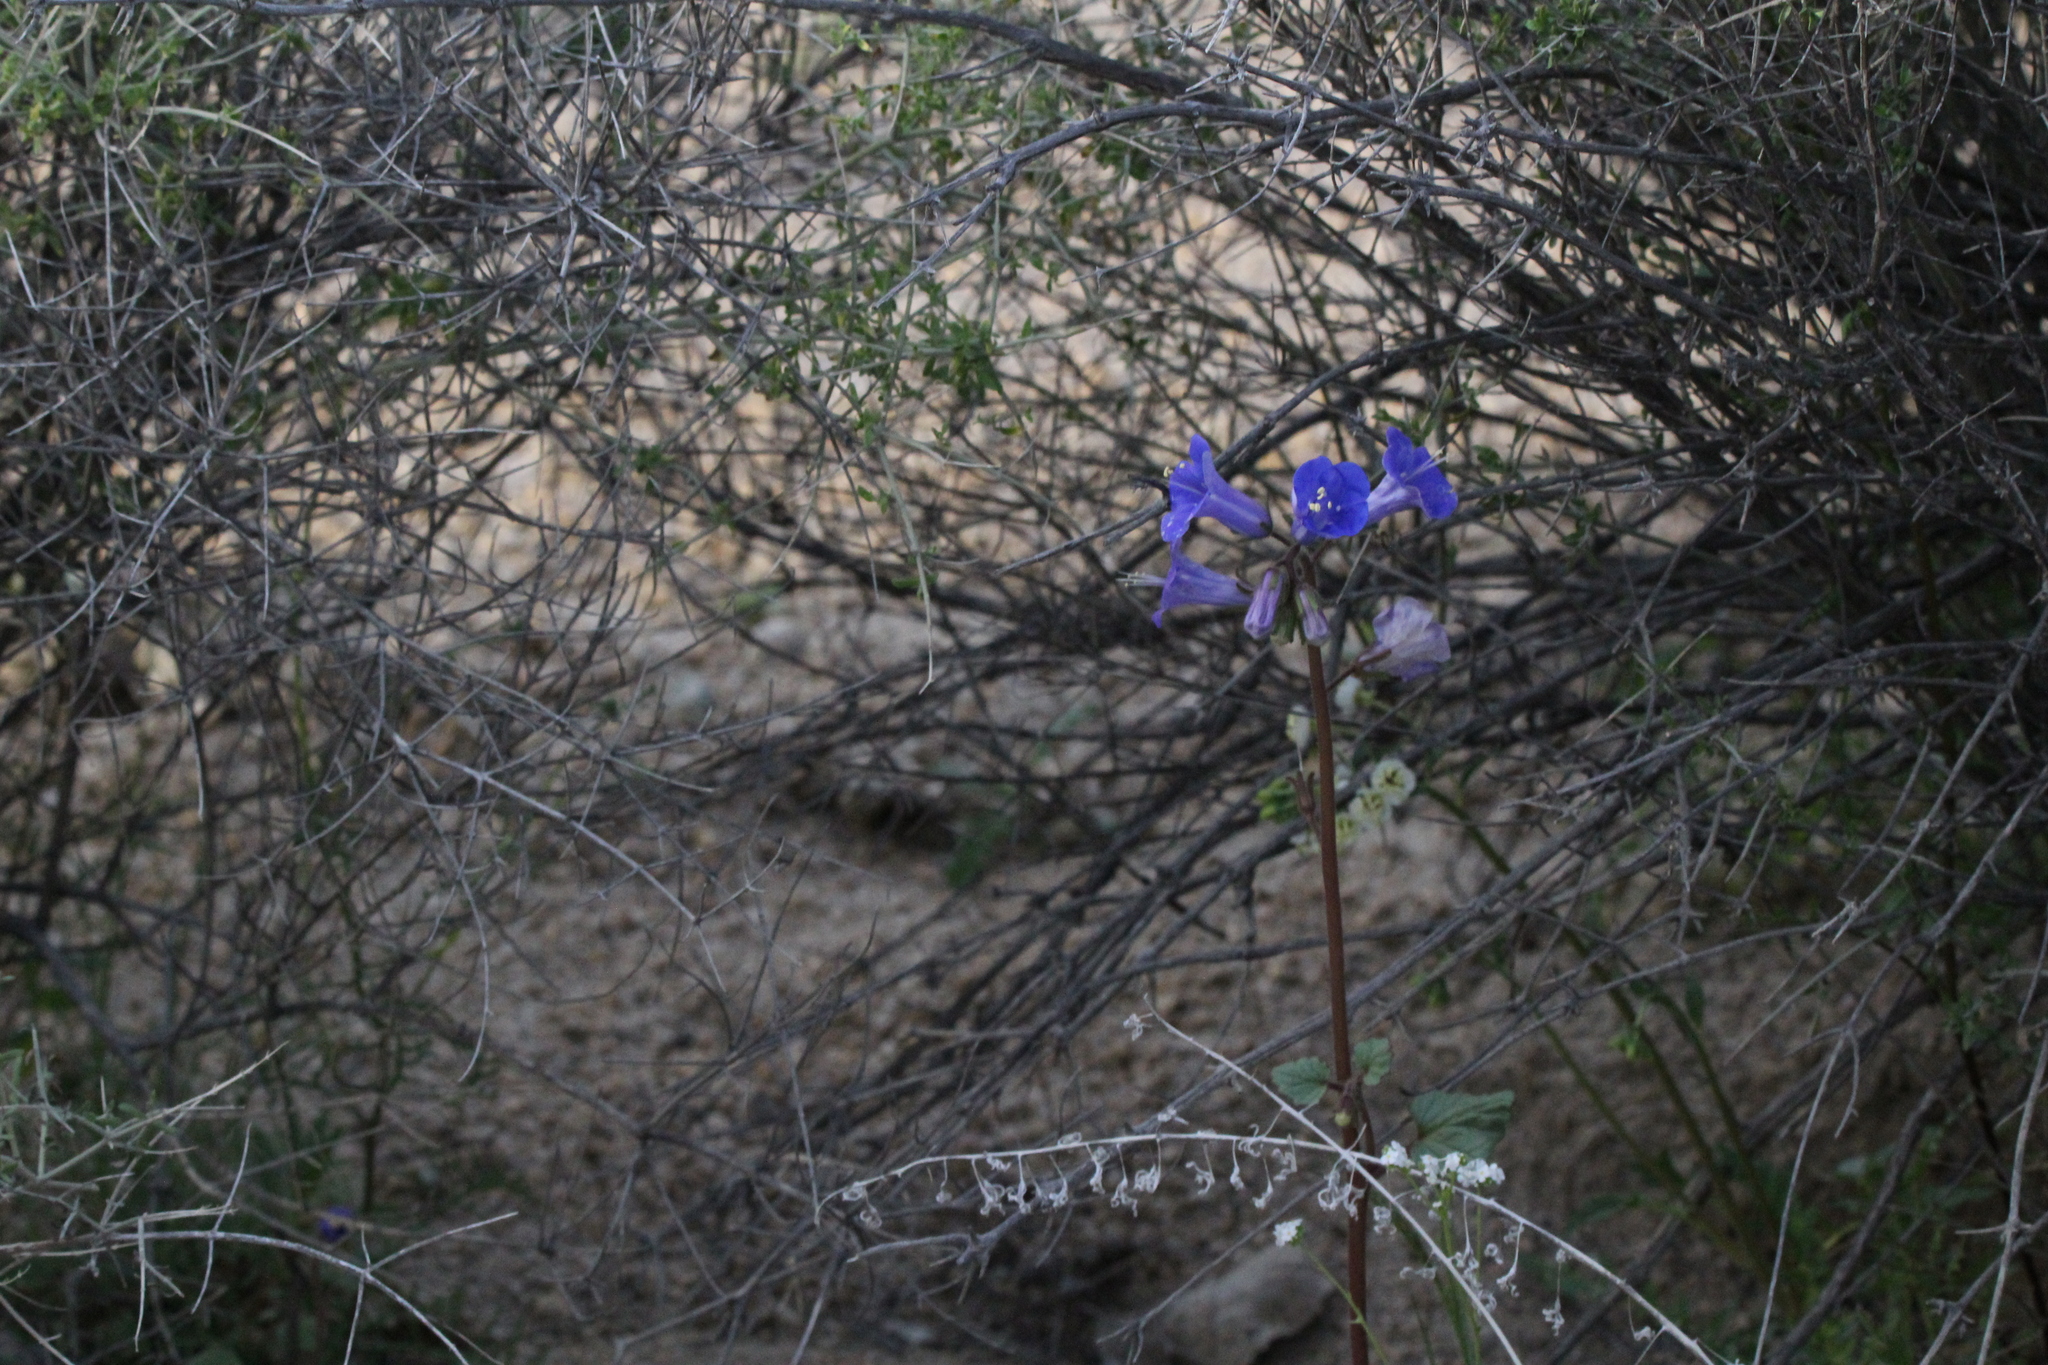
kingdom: Plantae
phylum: Tracheophyta
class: Magnoliopsida
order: Boraginales
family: Hydrophyllaceae
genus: Phacelia
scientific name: Phacelia campanularia
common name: California bluebell
